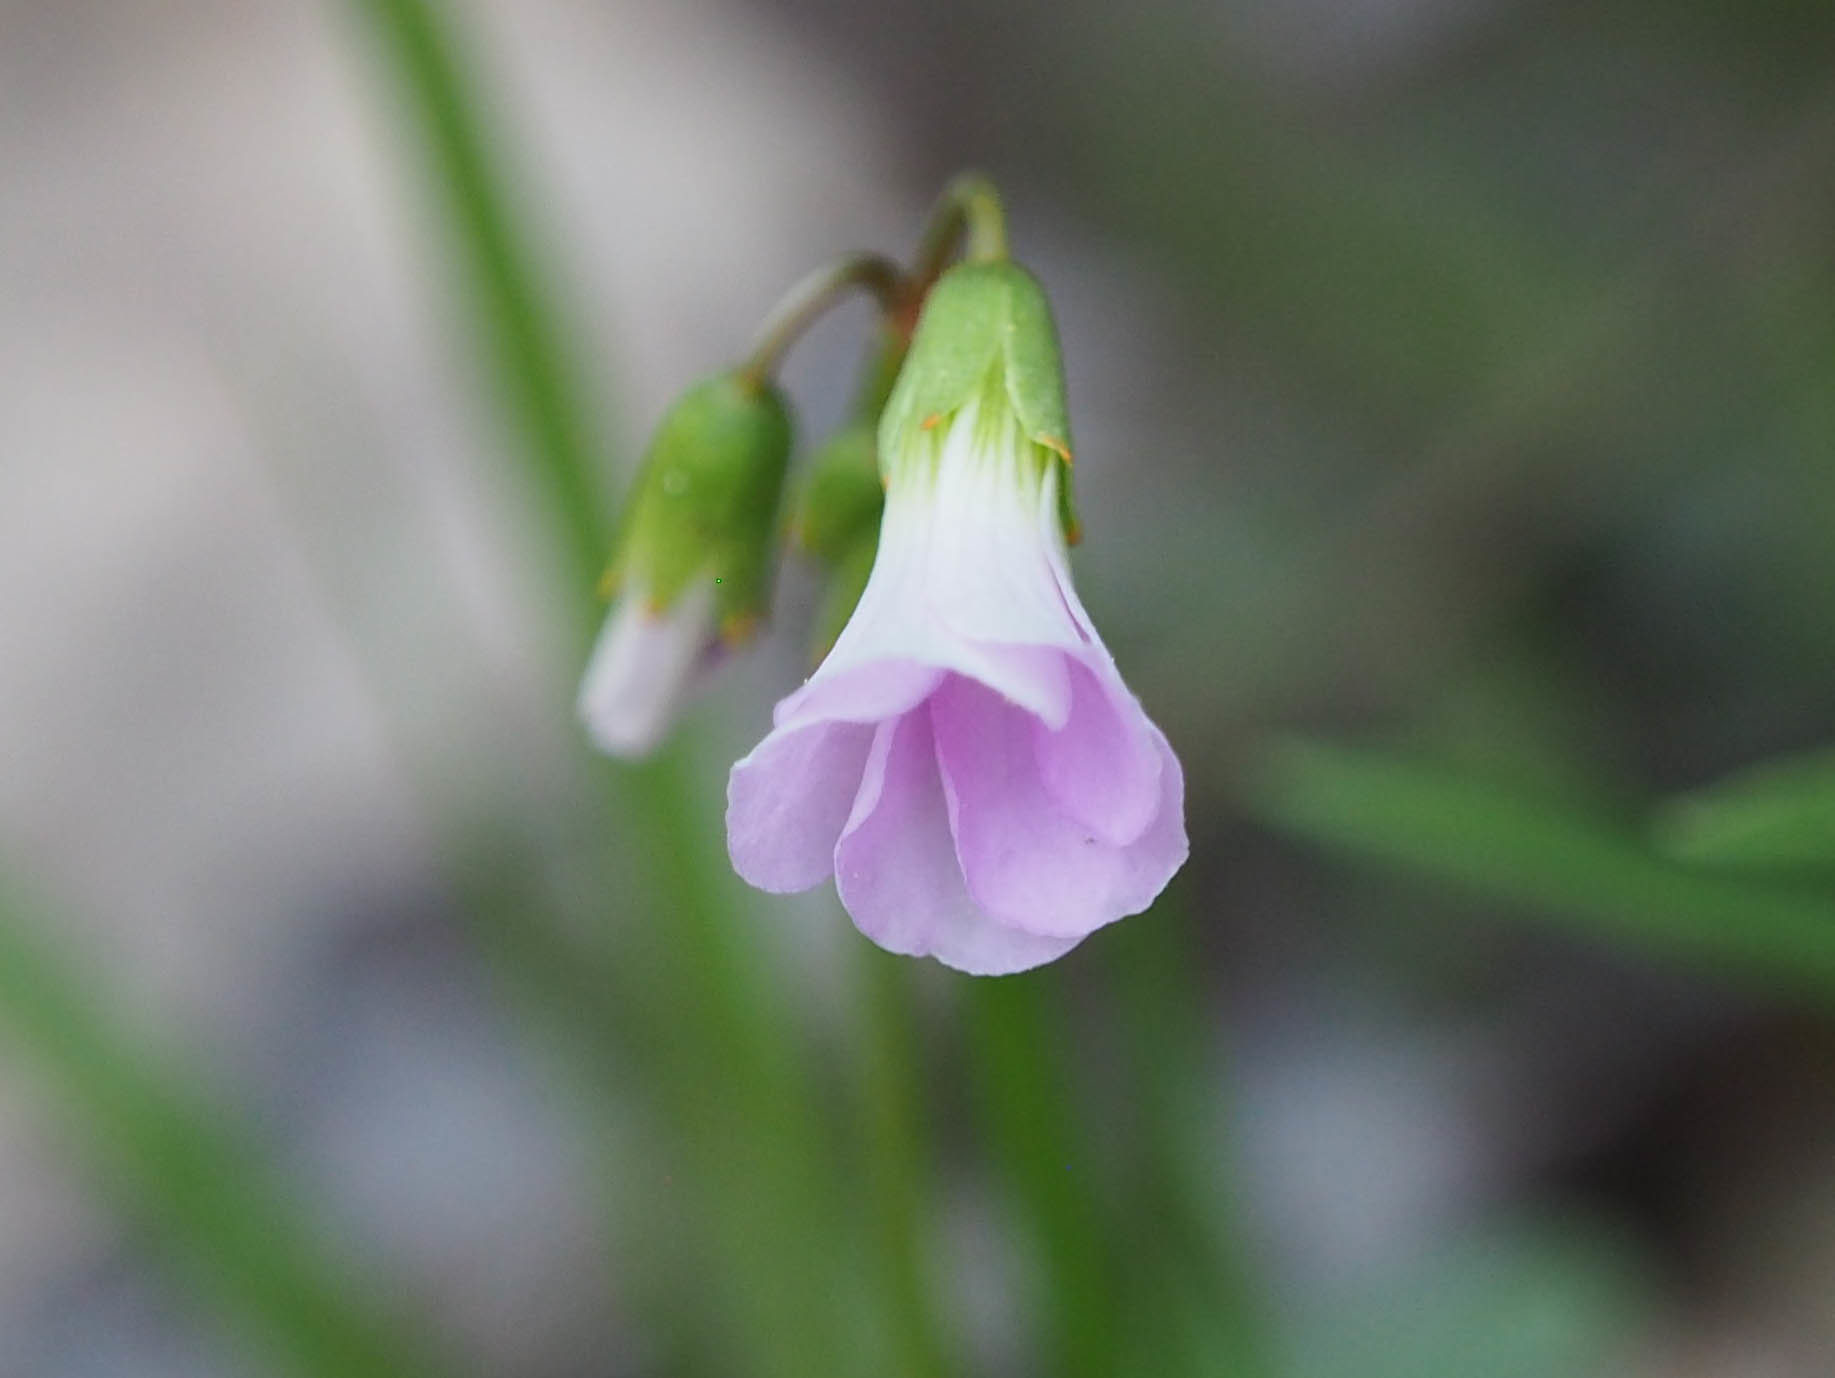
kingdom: Plantae
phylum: Tracheophyta
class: Magnoliopsida
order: Oxalidales
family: Oxalidaceae
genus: Oxalis
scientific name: Oxalis violacea
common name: Violet wood-sorrel
